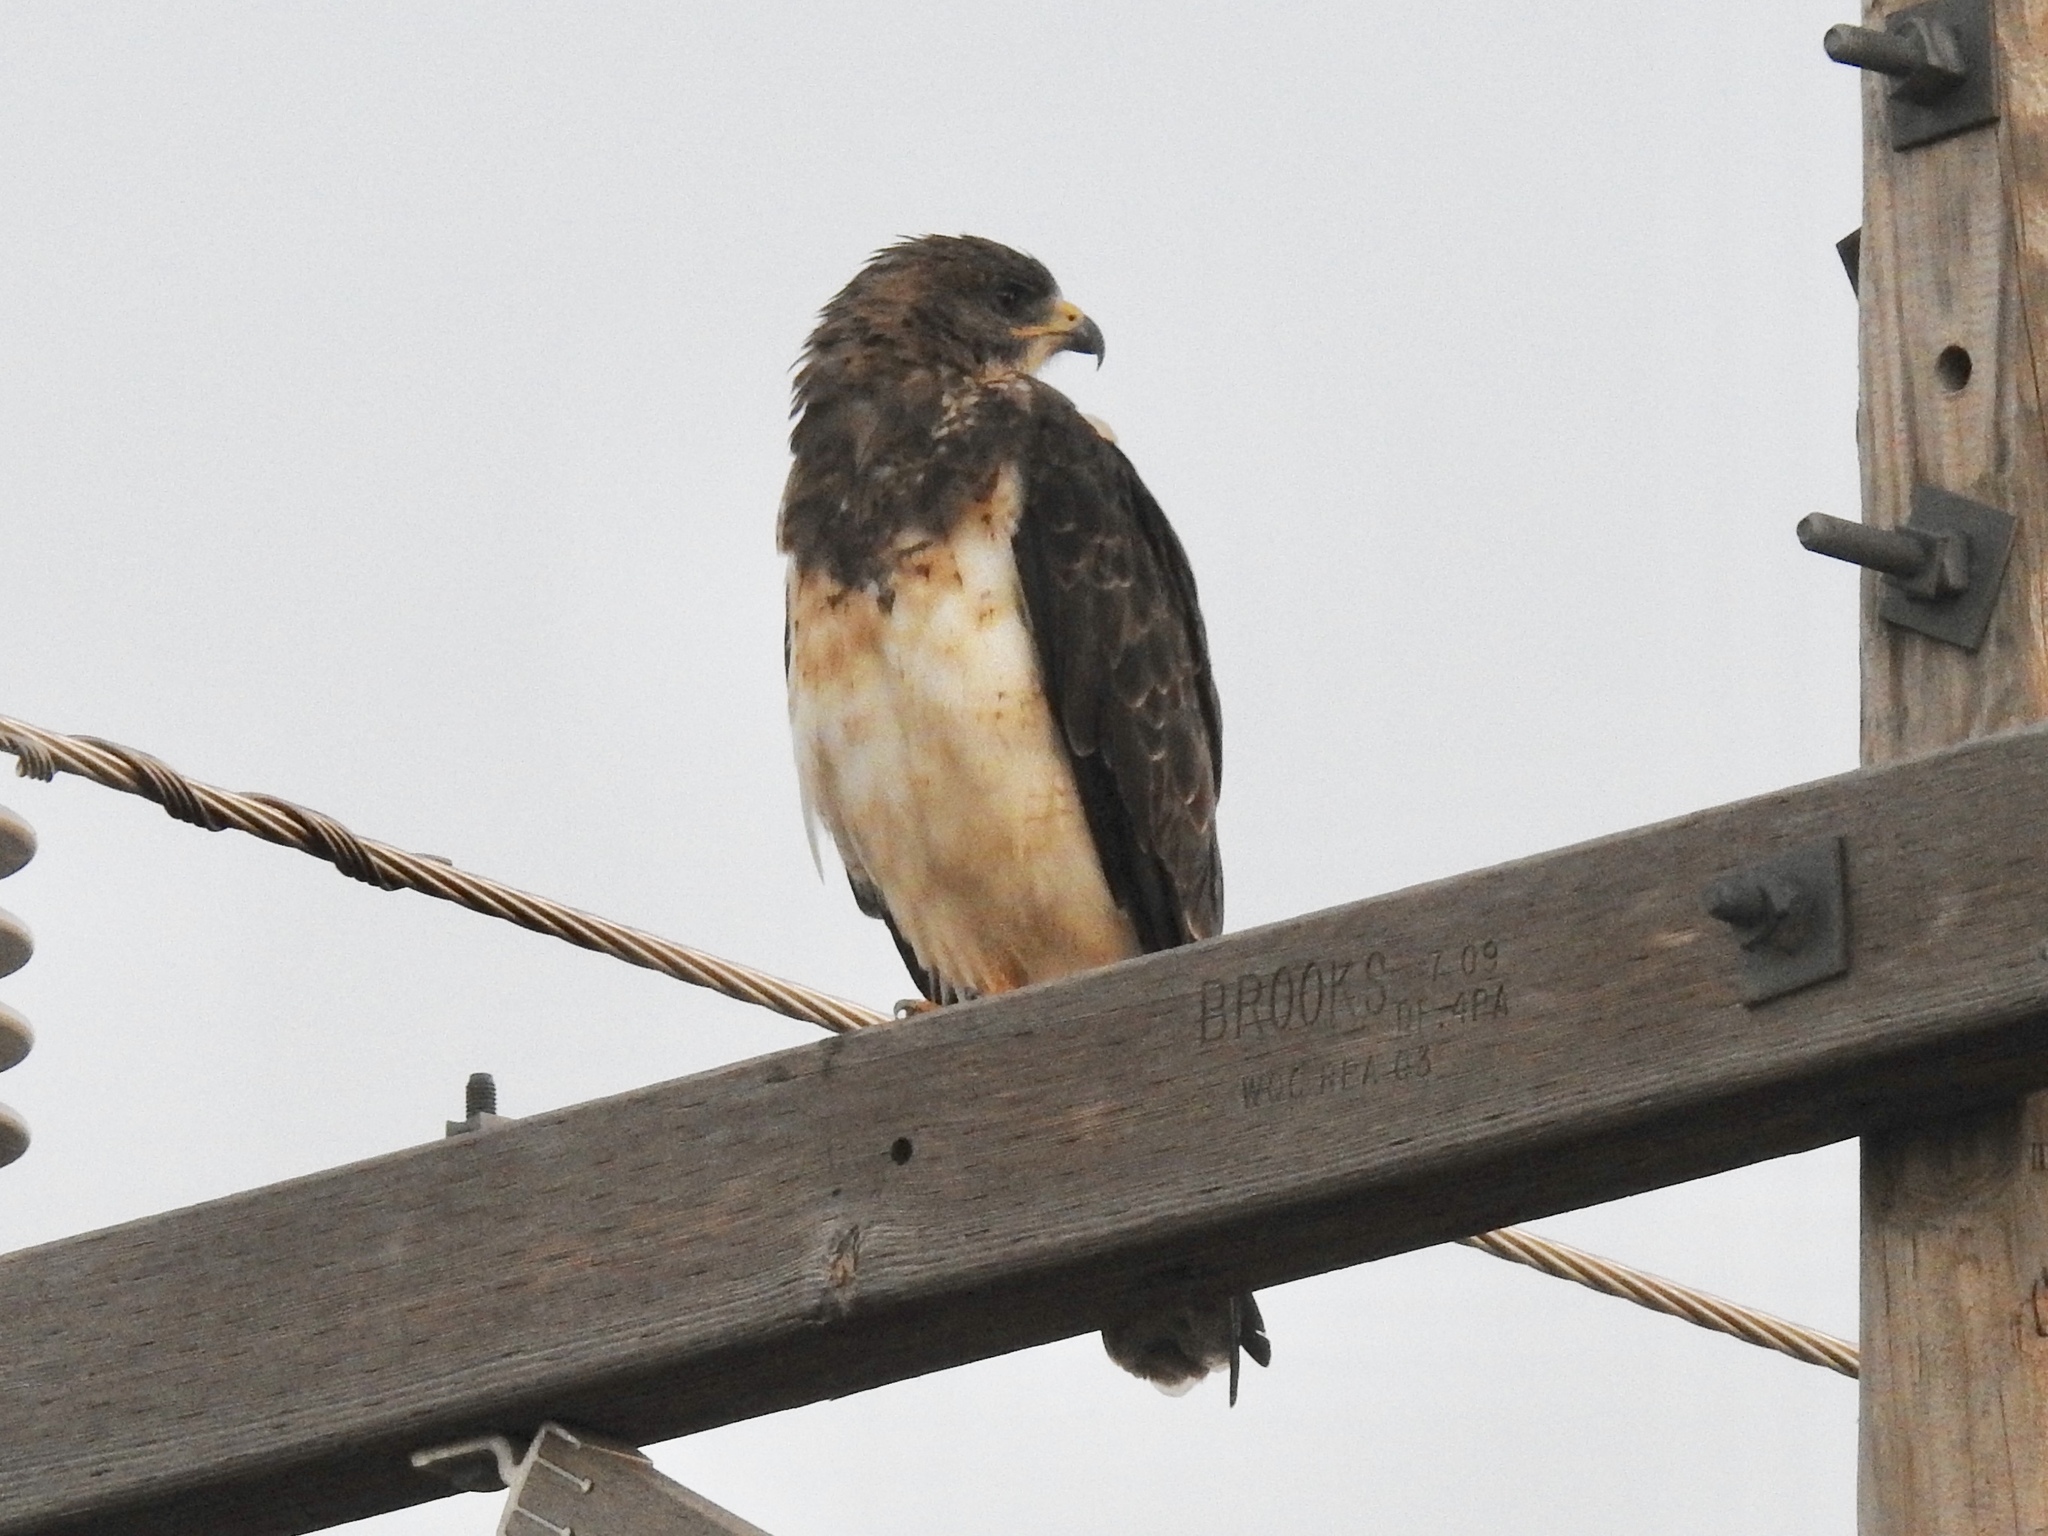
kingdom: Animalia
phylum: Chordata
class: Aves
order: Accipitriformes
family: Accipitridae
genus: Buteo
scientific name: Buteo swainsoni
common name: Swainson's hawk
